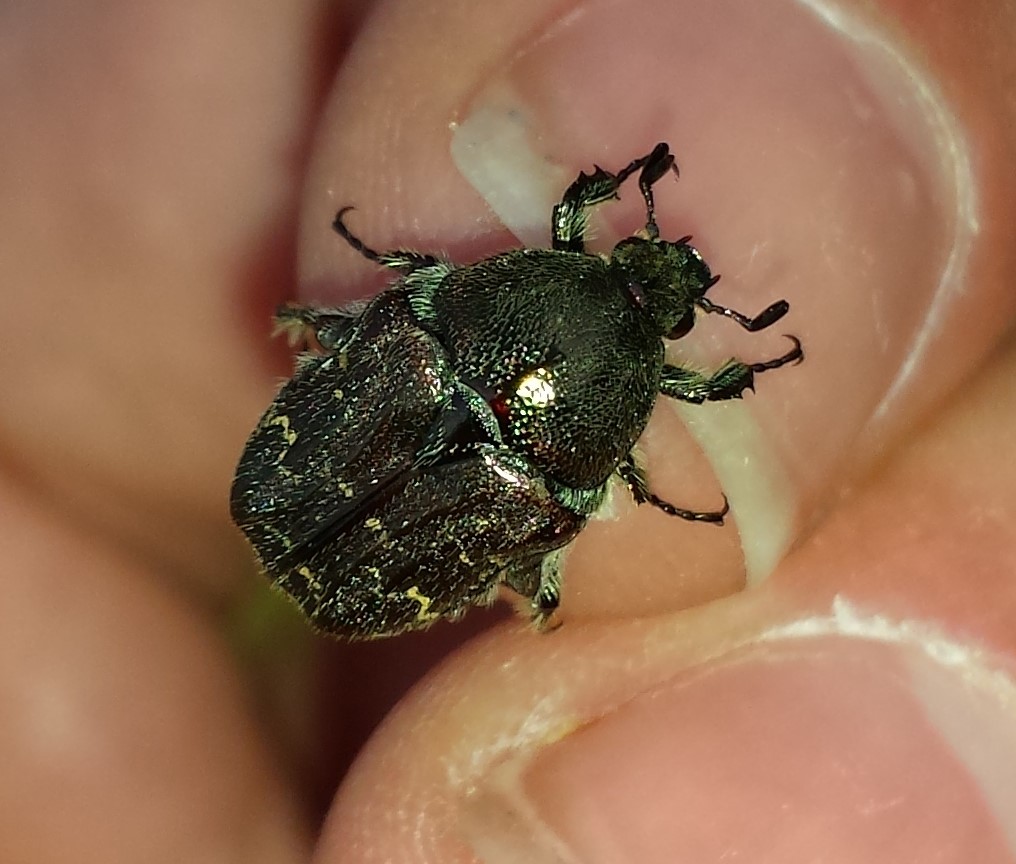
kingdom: Animalia
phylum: Arthropoda
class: Insecta
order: Coleoptera
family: Scarabaeidae
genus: Euphoria
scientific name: Euphoria sepulcralis
